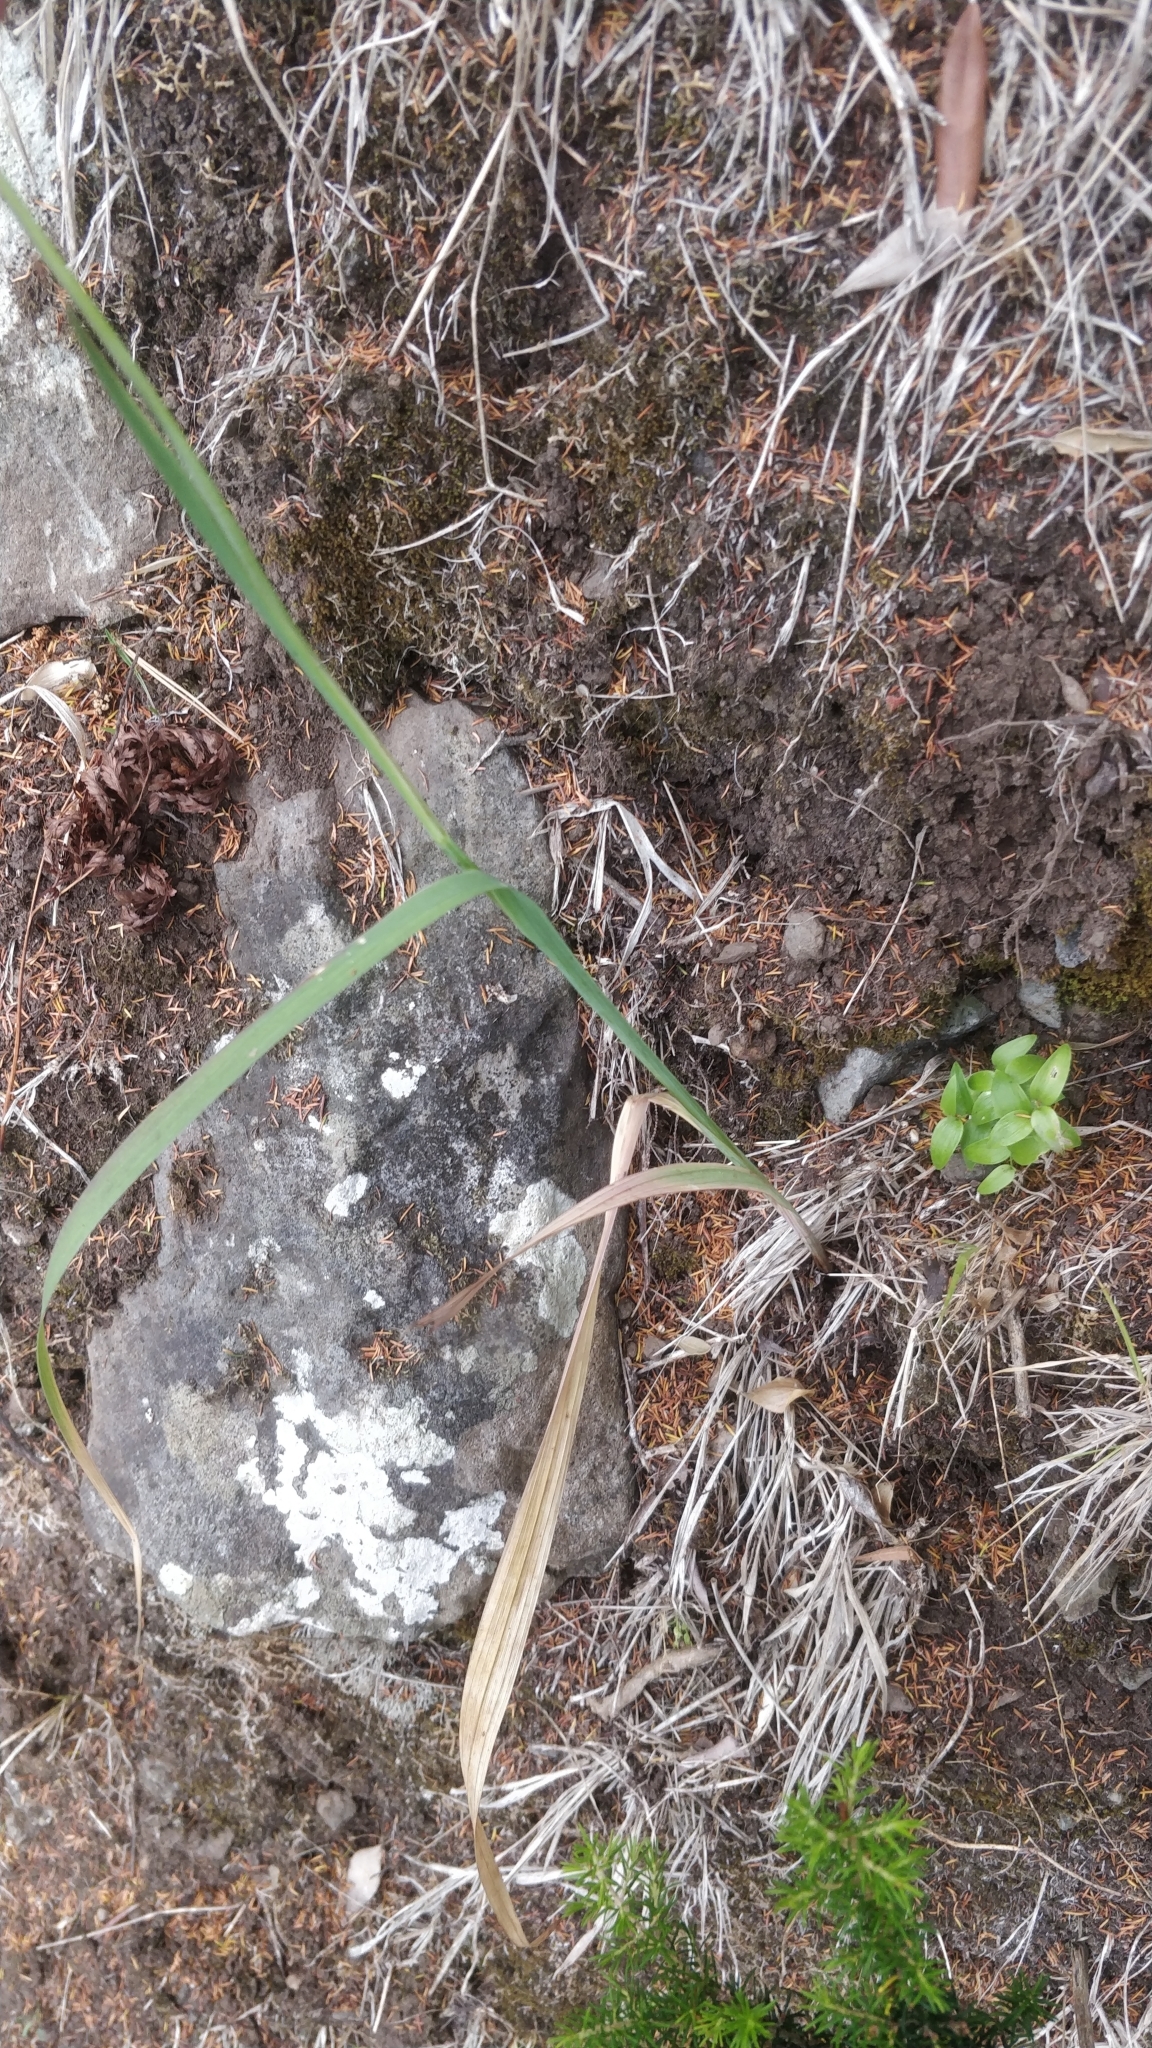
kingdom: Plantae
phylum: Tracheophyta
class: Liliopsida
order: Asparagales
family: Iridaceae
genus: Gladiolus
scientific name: Gladiolus italicus
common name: Field gladiolus
